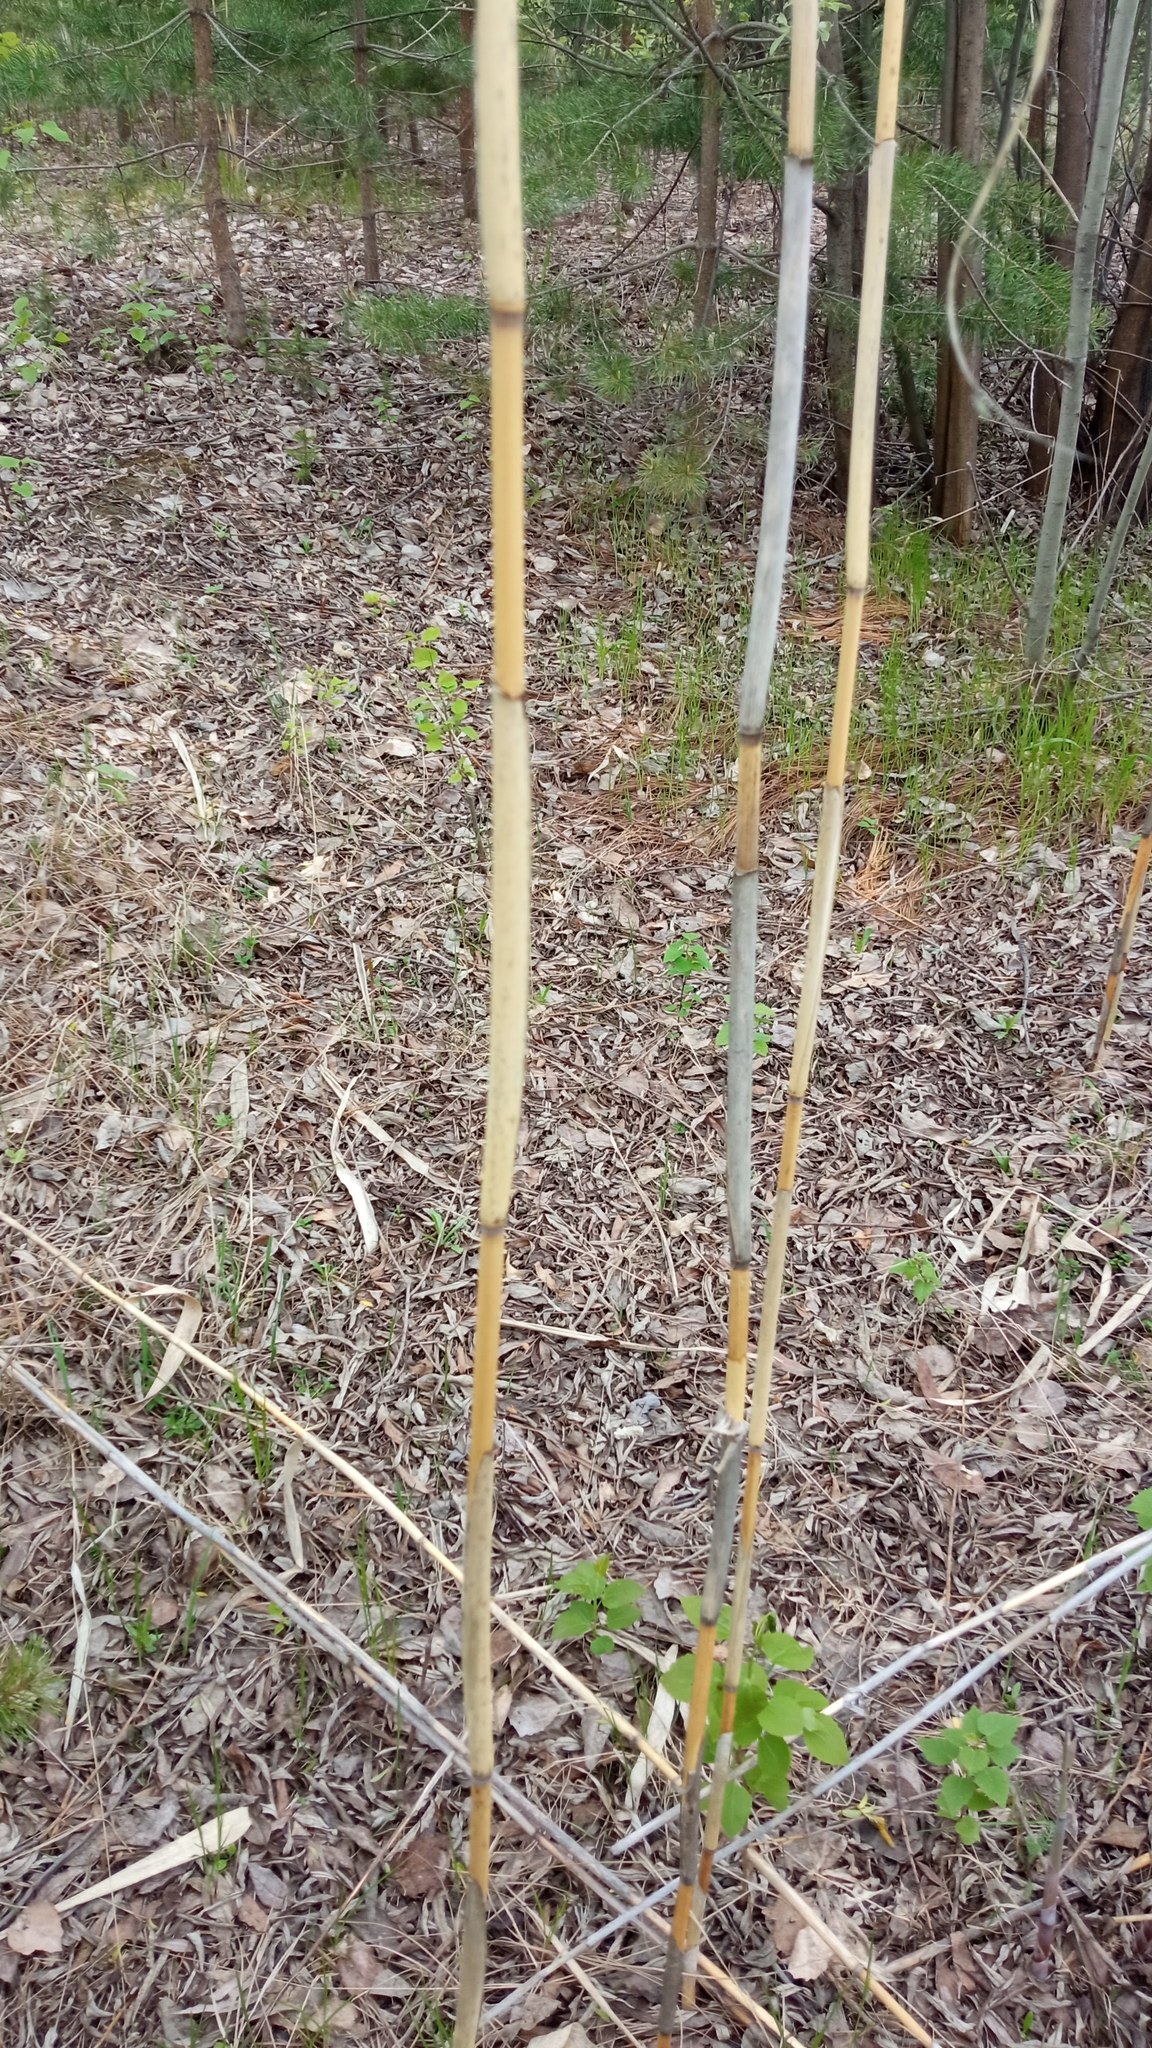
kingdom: Plantae
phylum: Tracheophyta
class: Liliopsida
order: Poales
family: Poaceae
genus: Phragmites
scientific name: Phragmites australis
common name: Common reed
